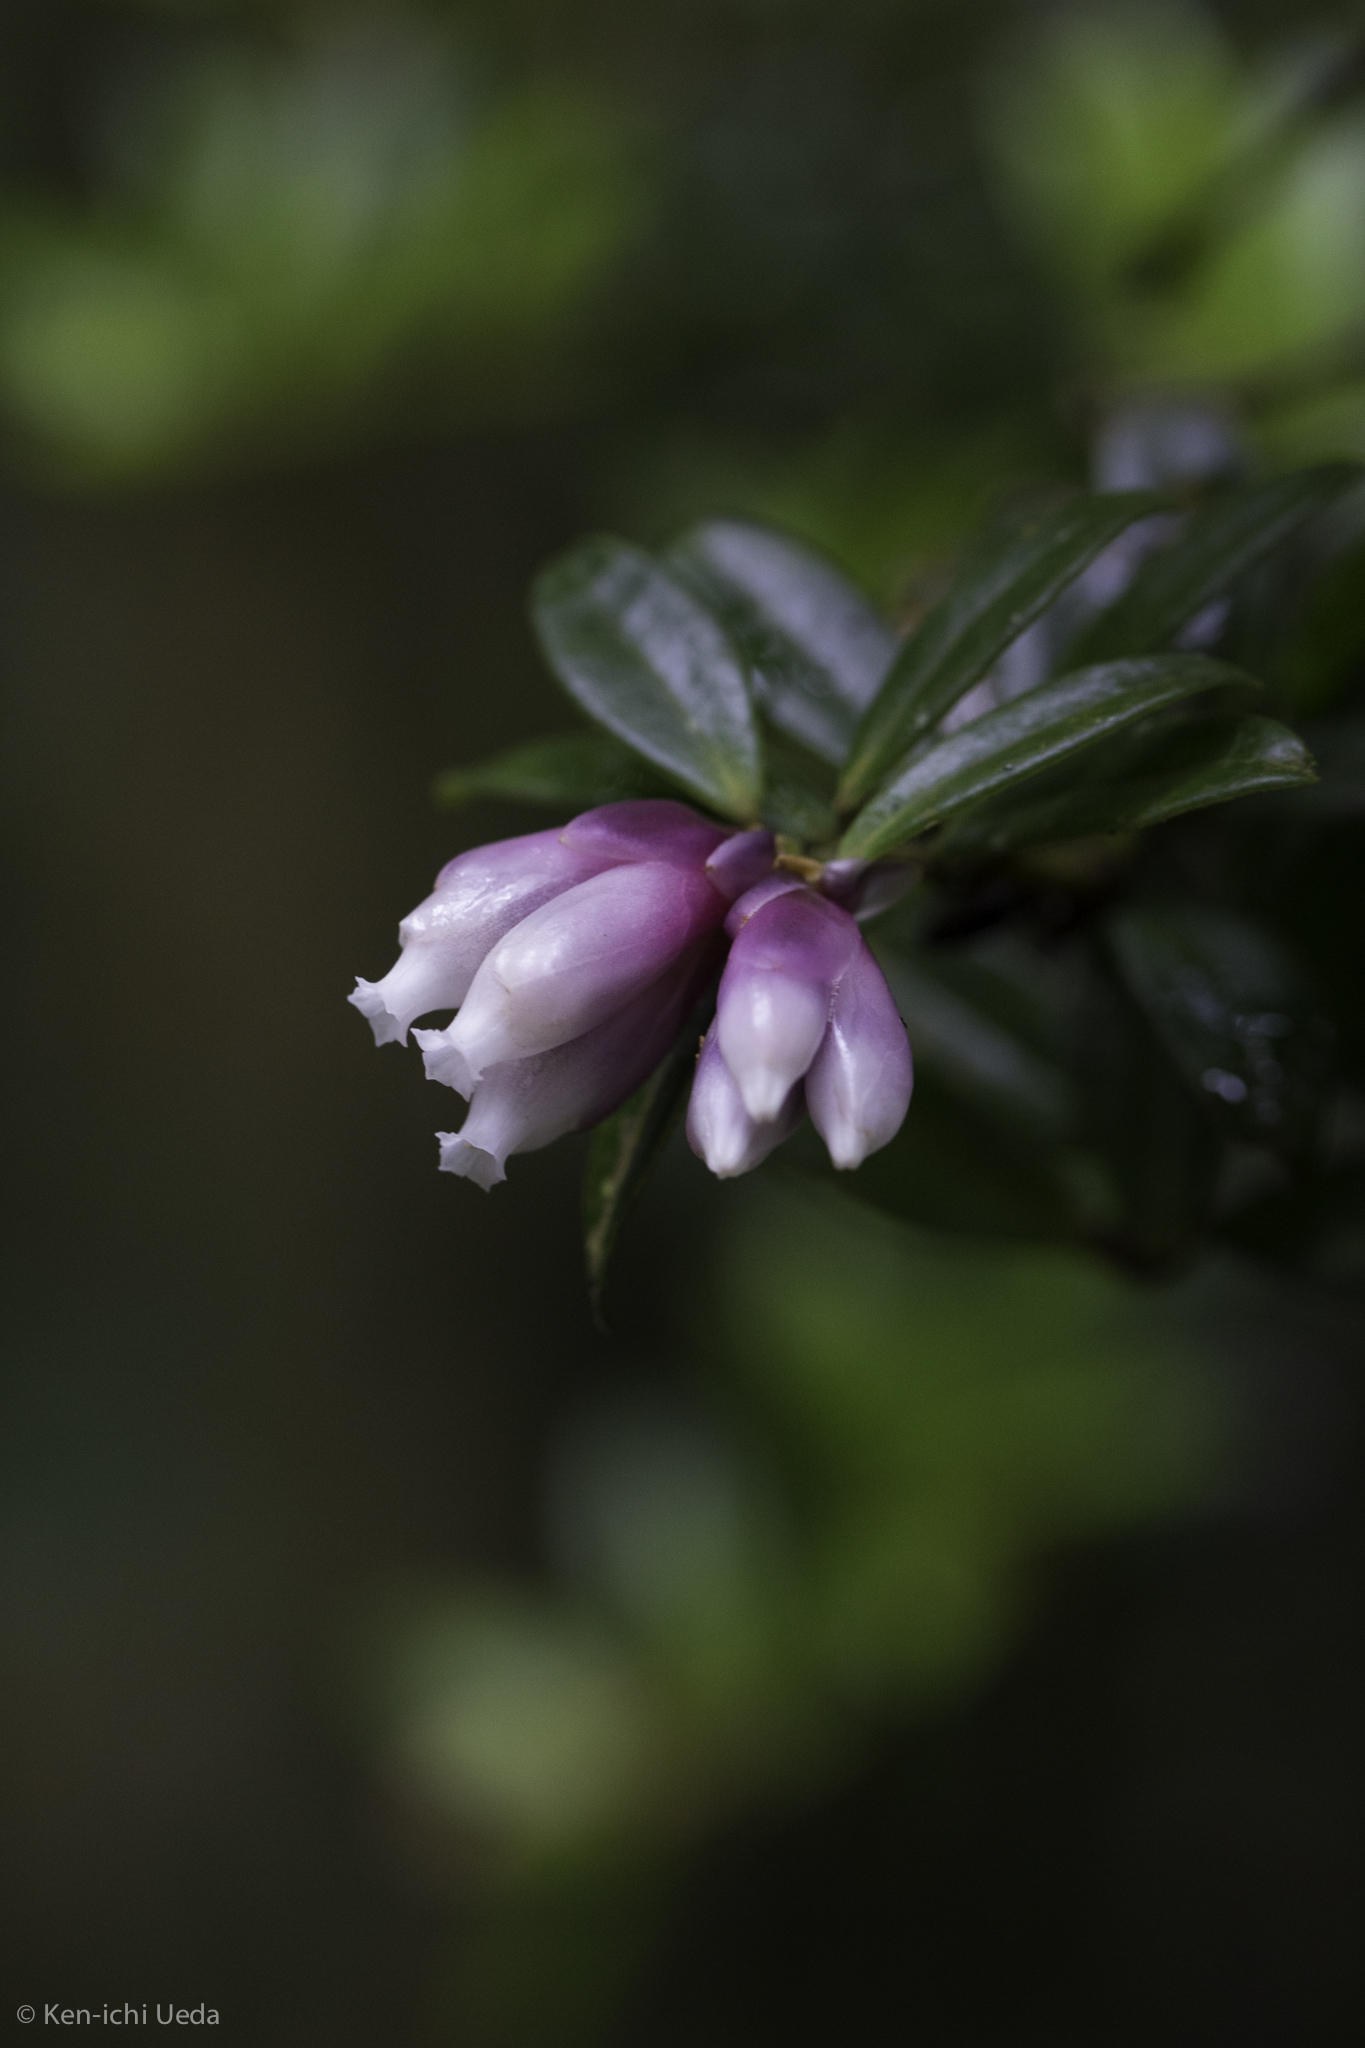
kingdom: Plantae
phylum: Tracheophyta
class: Magnoliopsida
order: Ericales
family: Ericaceae
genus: Cavendishia
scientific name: Cavendishia capitulata
